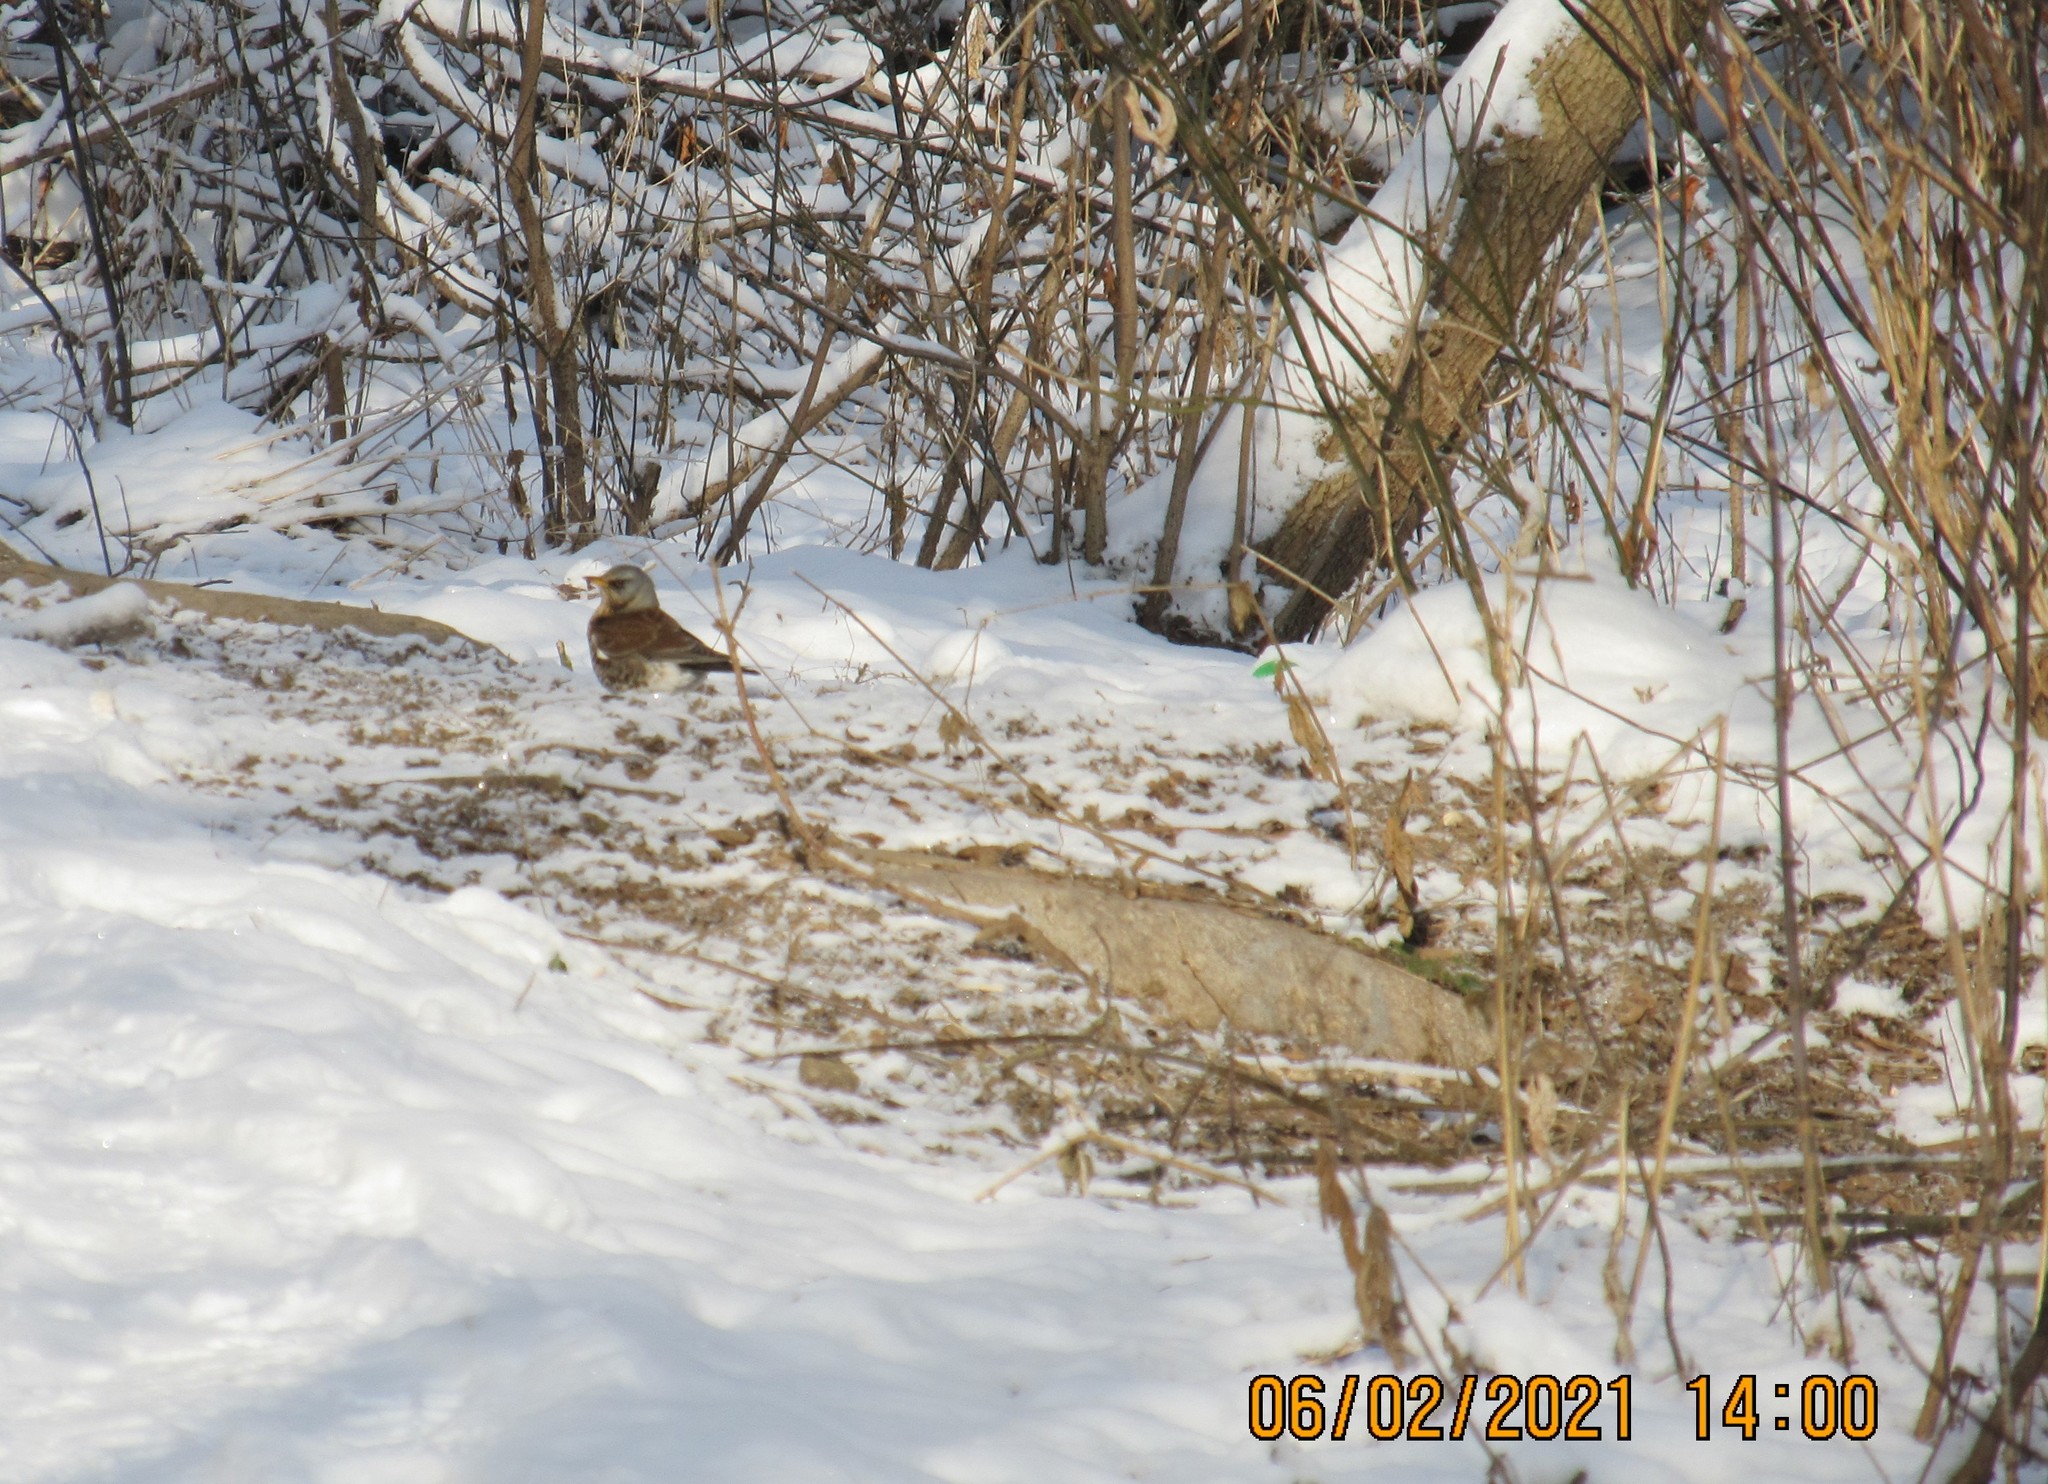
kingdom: Animalia
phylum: Chordata
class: Aves
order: Passeriformes
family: Turdidae
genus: Turdus
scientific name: Turdus pilaris
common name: Fieldfare
